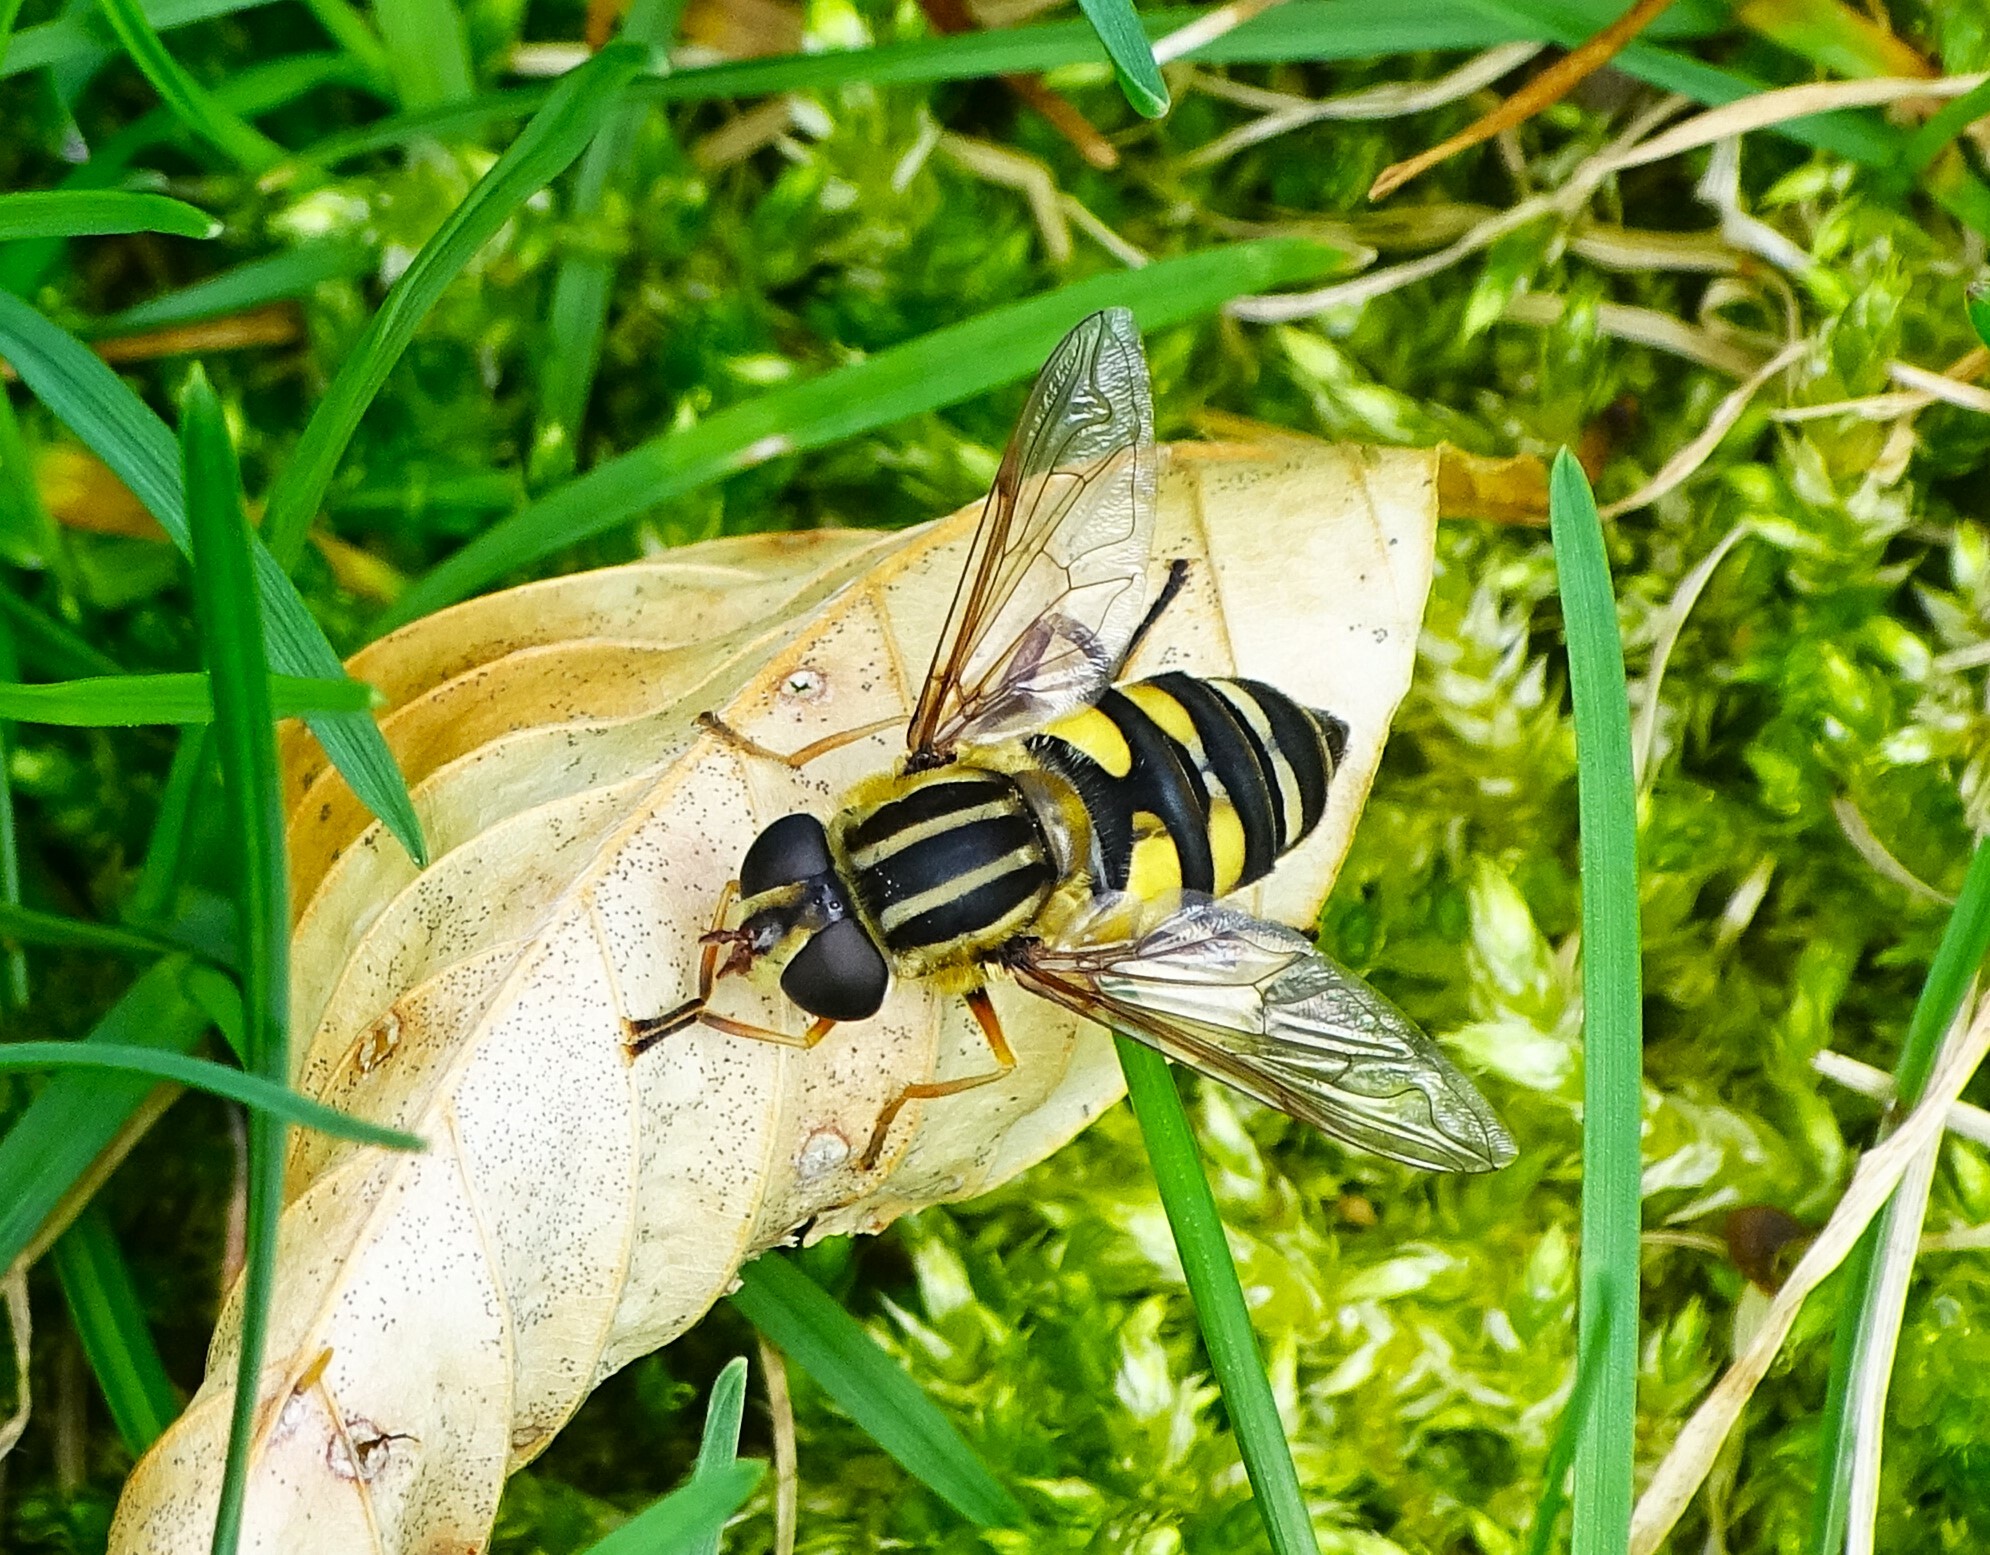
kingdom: Animalia
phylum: Arthropoda
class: Insecta
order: Diptera
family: Syrphidae
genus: Helophilus
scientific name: Helophilus fasciatus
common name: Narrow-headed marsh fly
